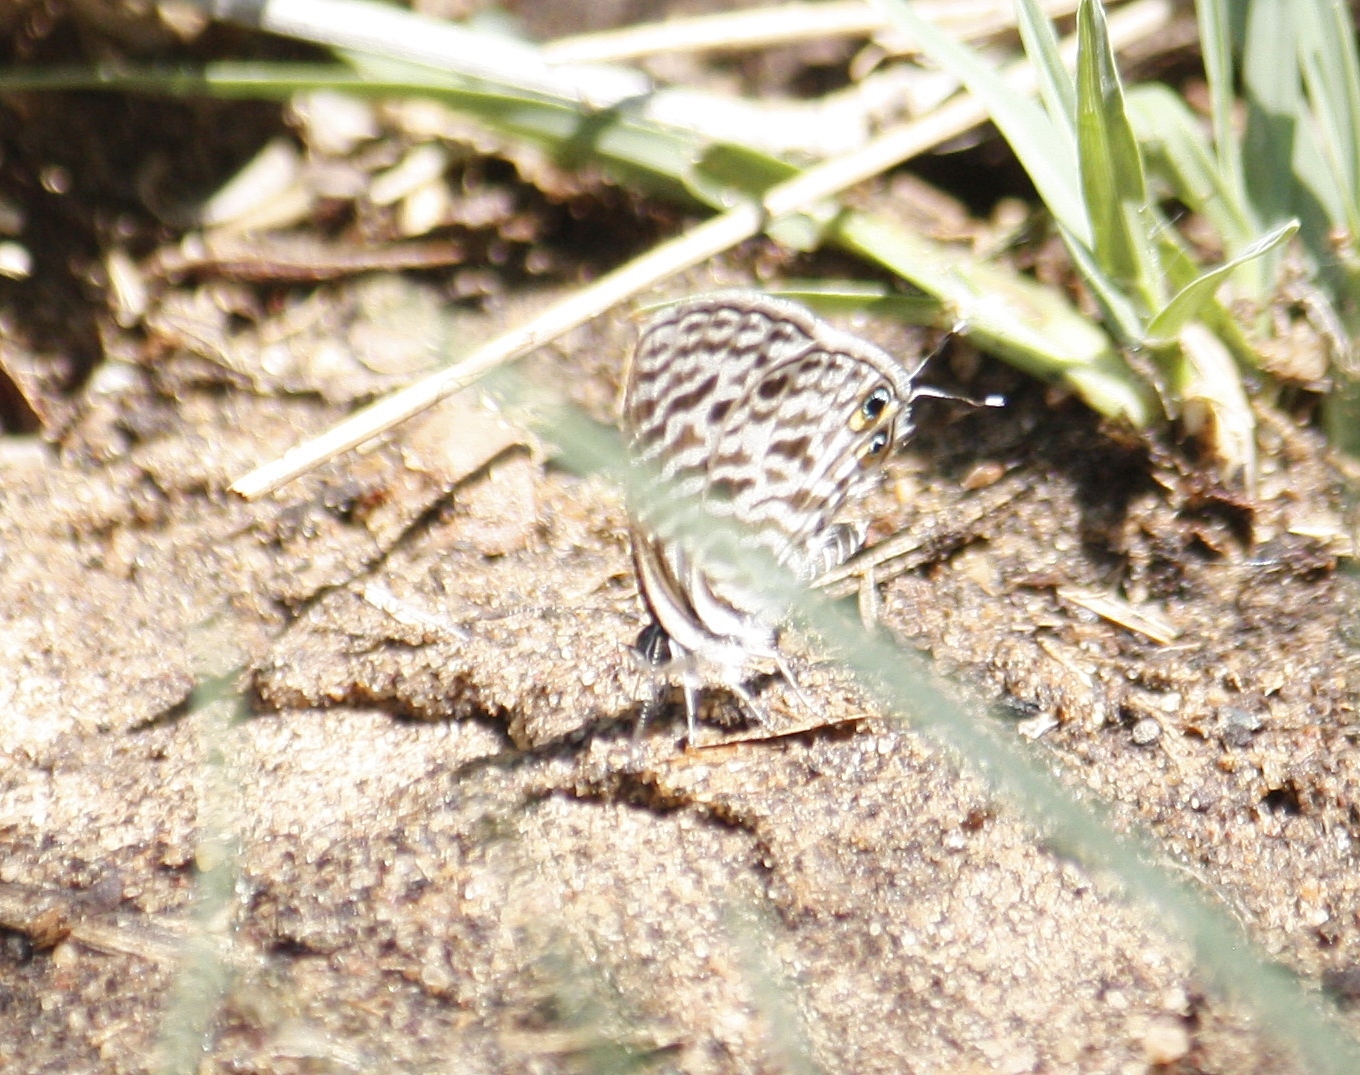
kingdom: Animalia
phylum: Arthropoda
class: Insecta
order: Lepidoptera
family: Lycaenidae
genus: Leptotes
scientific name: Leptotes
